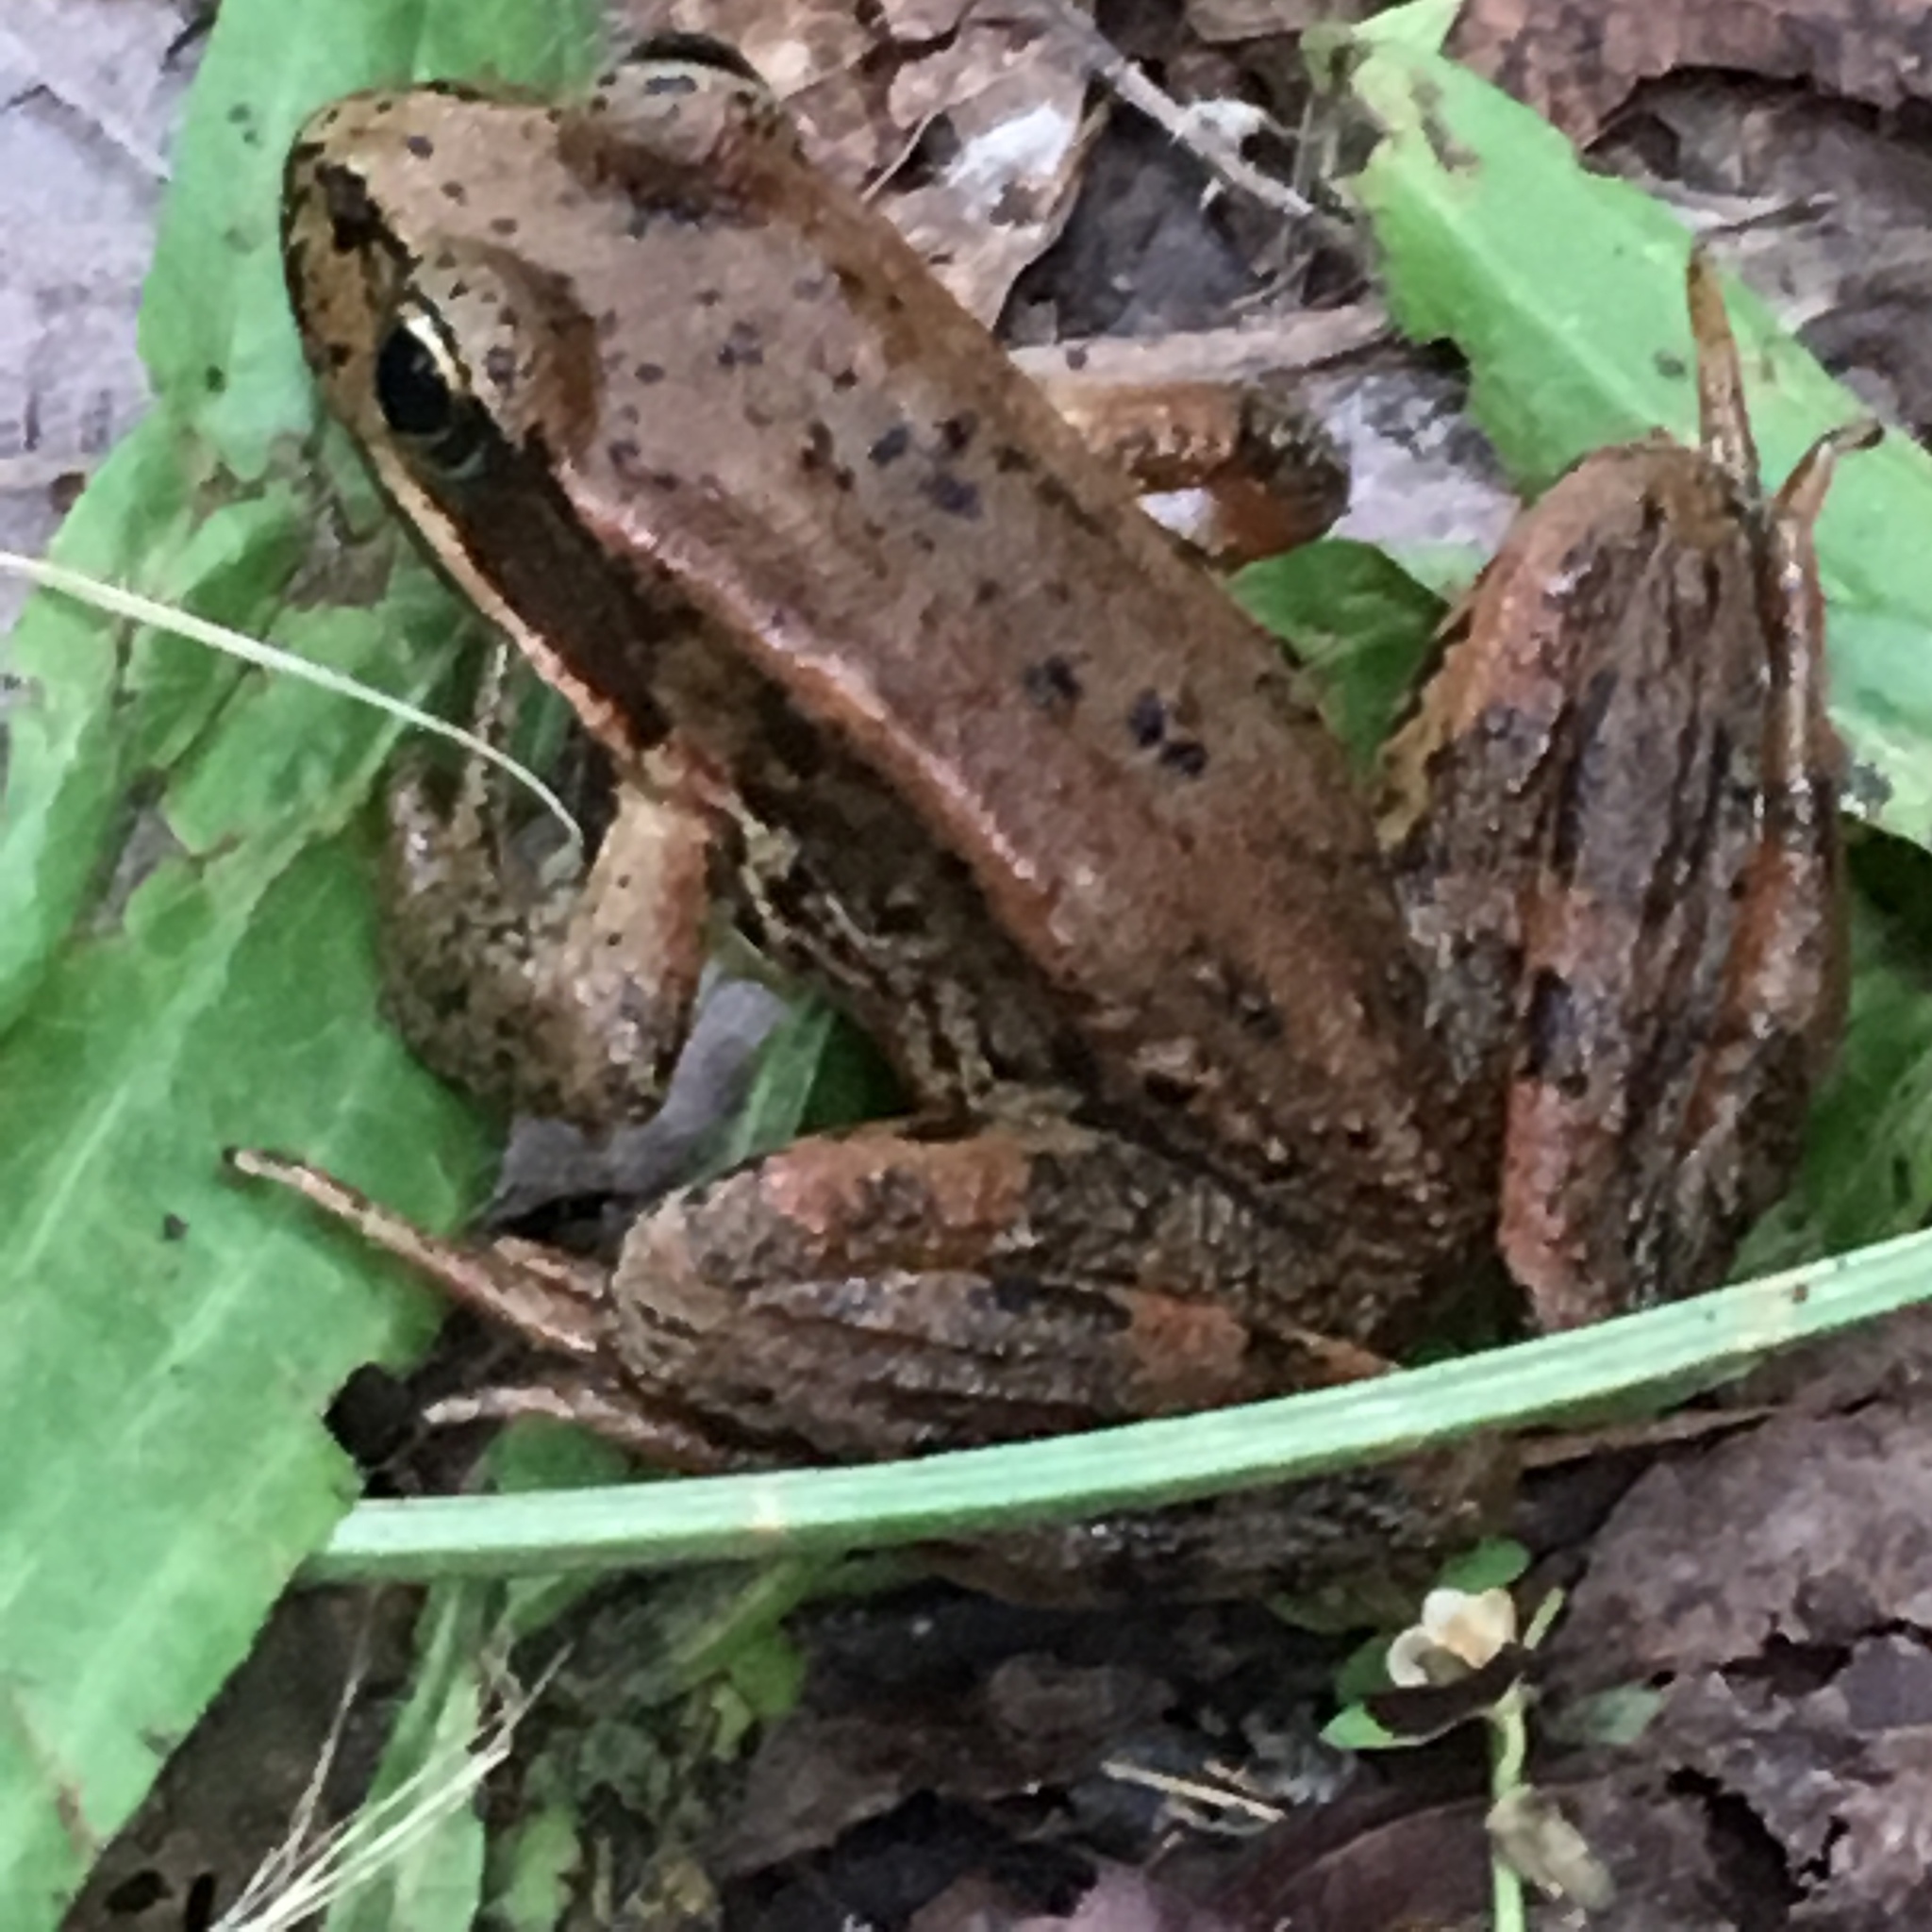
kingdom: Animalia
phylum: Chordata
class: Amphibia
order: Anura
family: Ranidae
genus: Rana
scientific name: Rana aurora
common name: Red-legged frog
